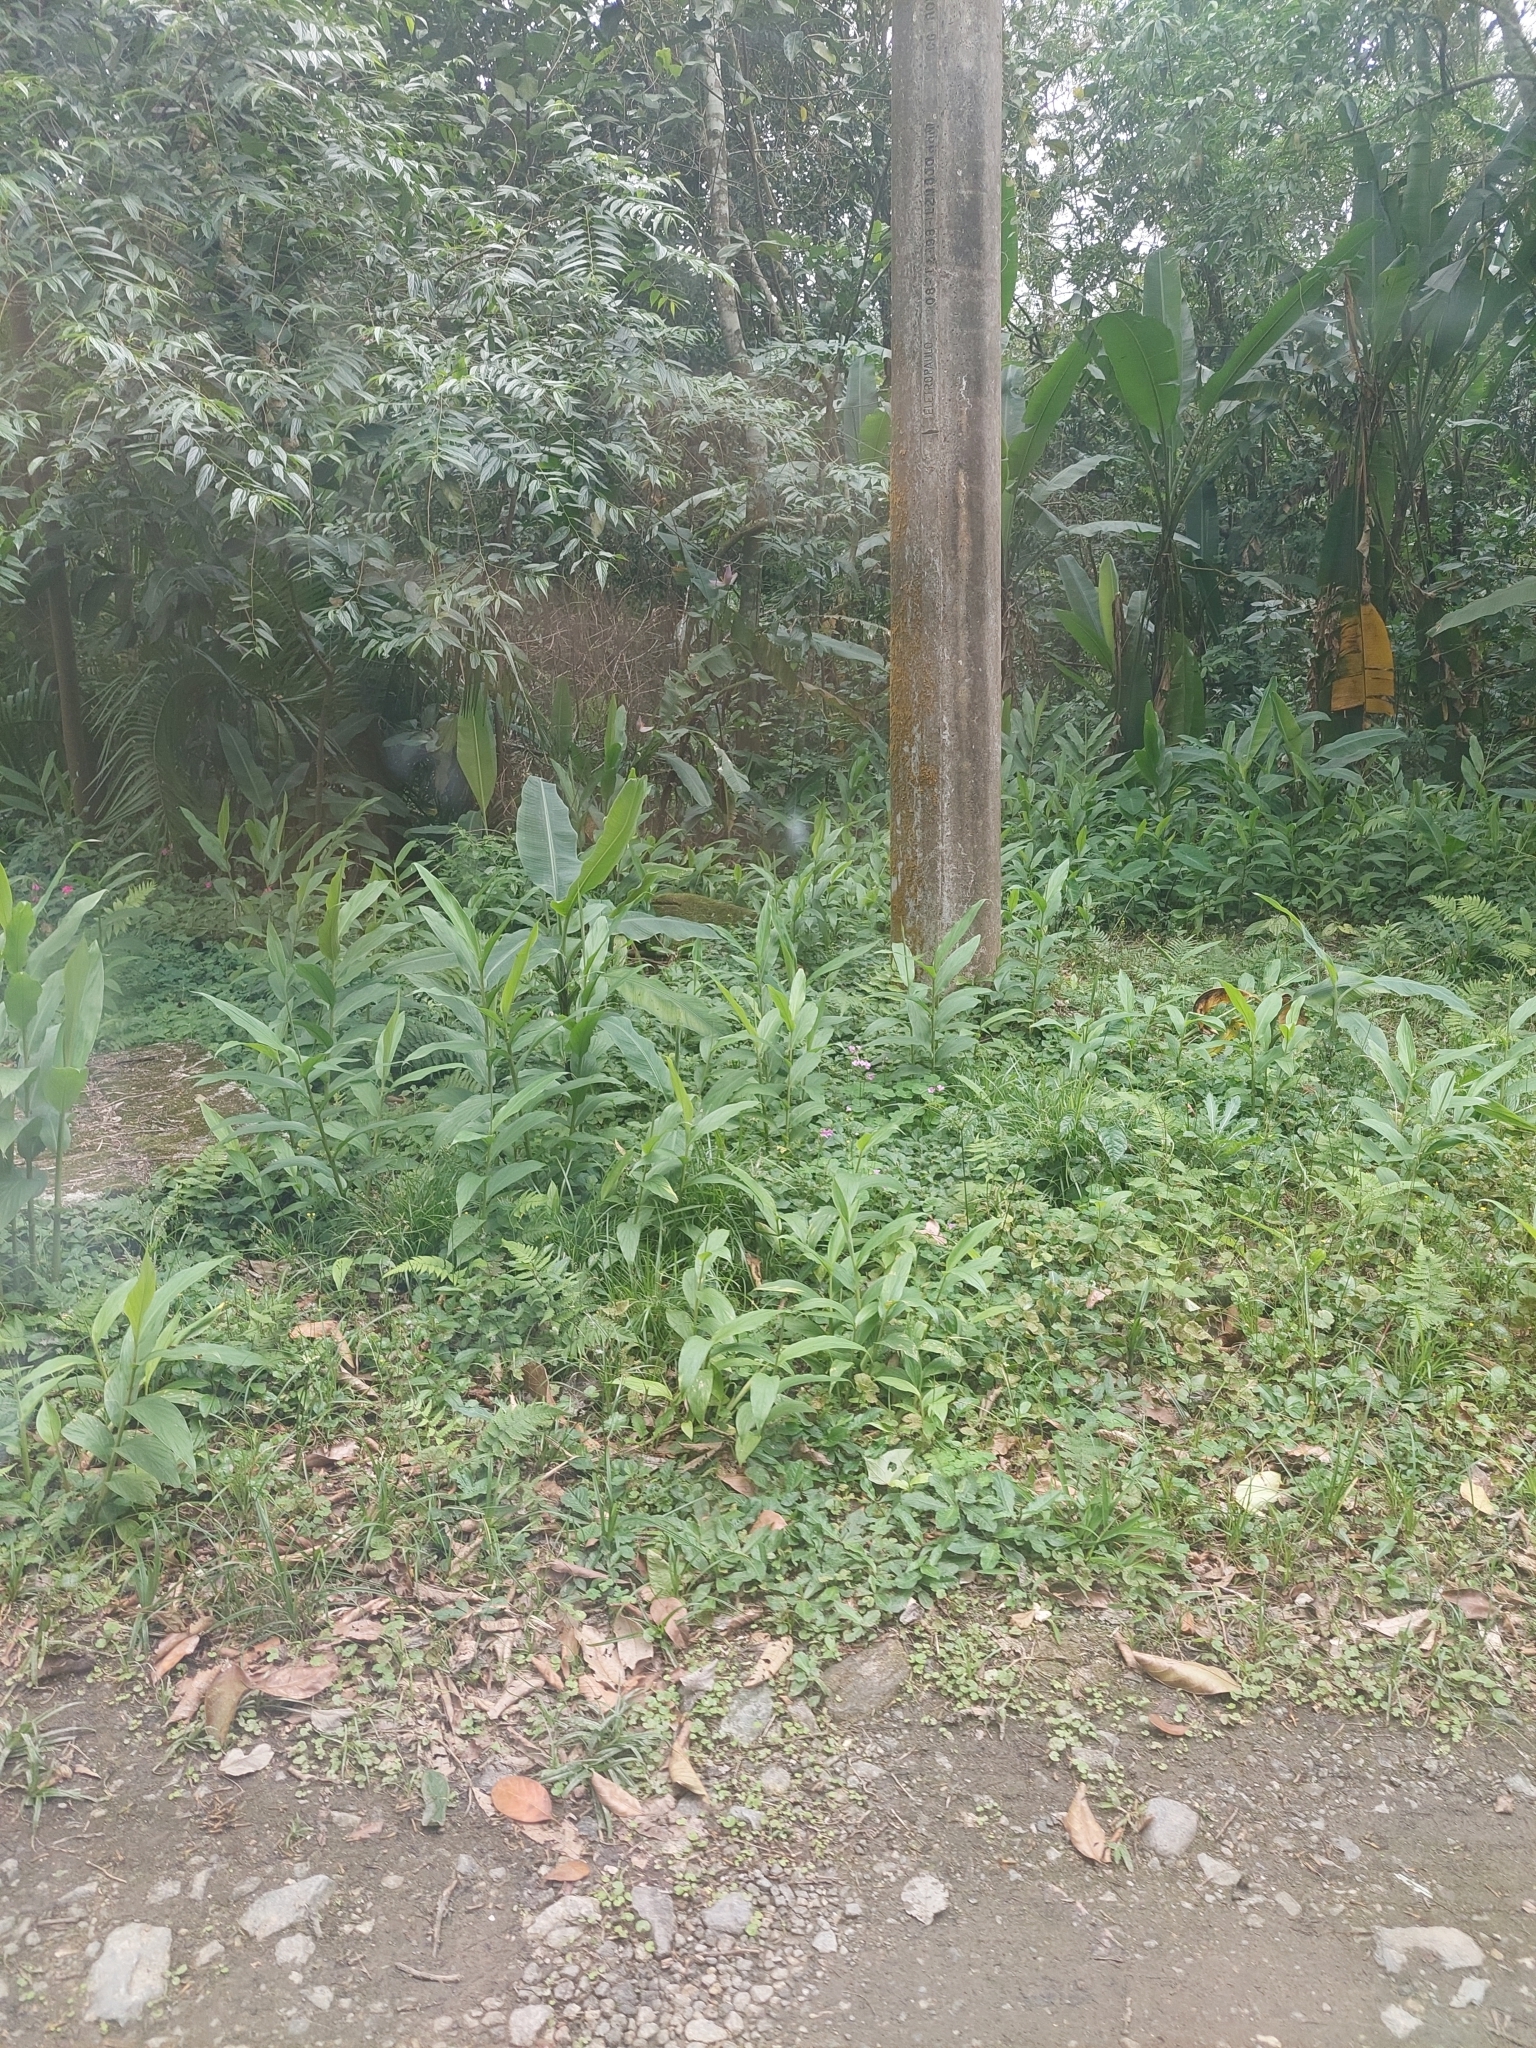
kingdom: Plantae
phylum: Tracheophyta
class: Liliopsida
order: Zingiberales
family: Zingiberaceae
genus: Hedychium
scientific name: Hedychium coronarium
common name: White garland-lily
